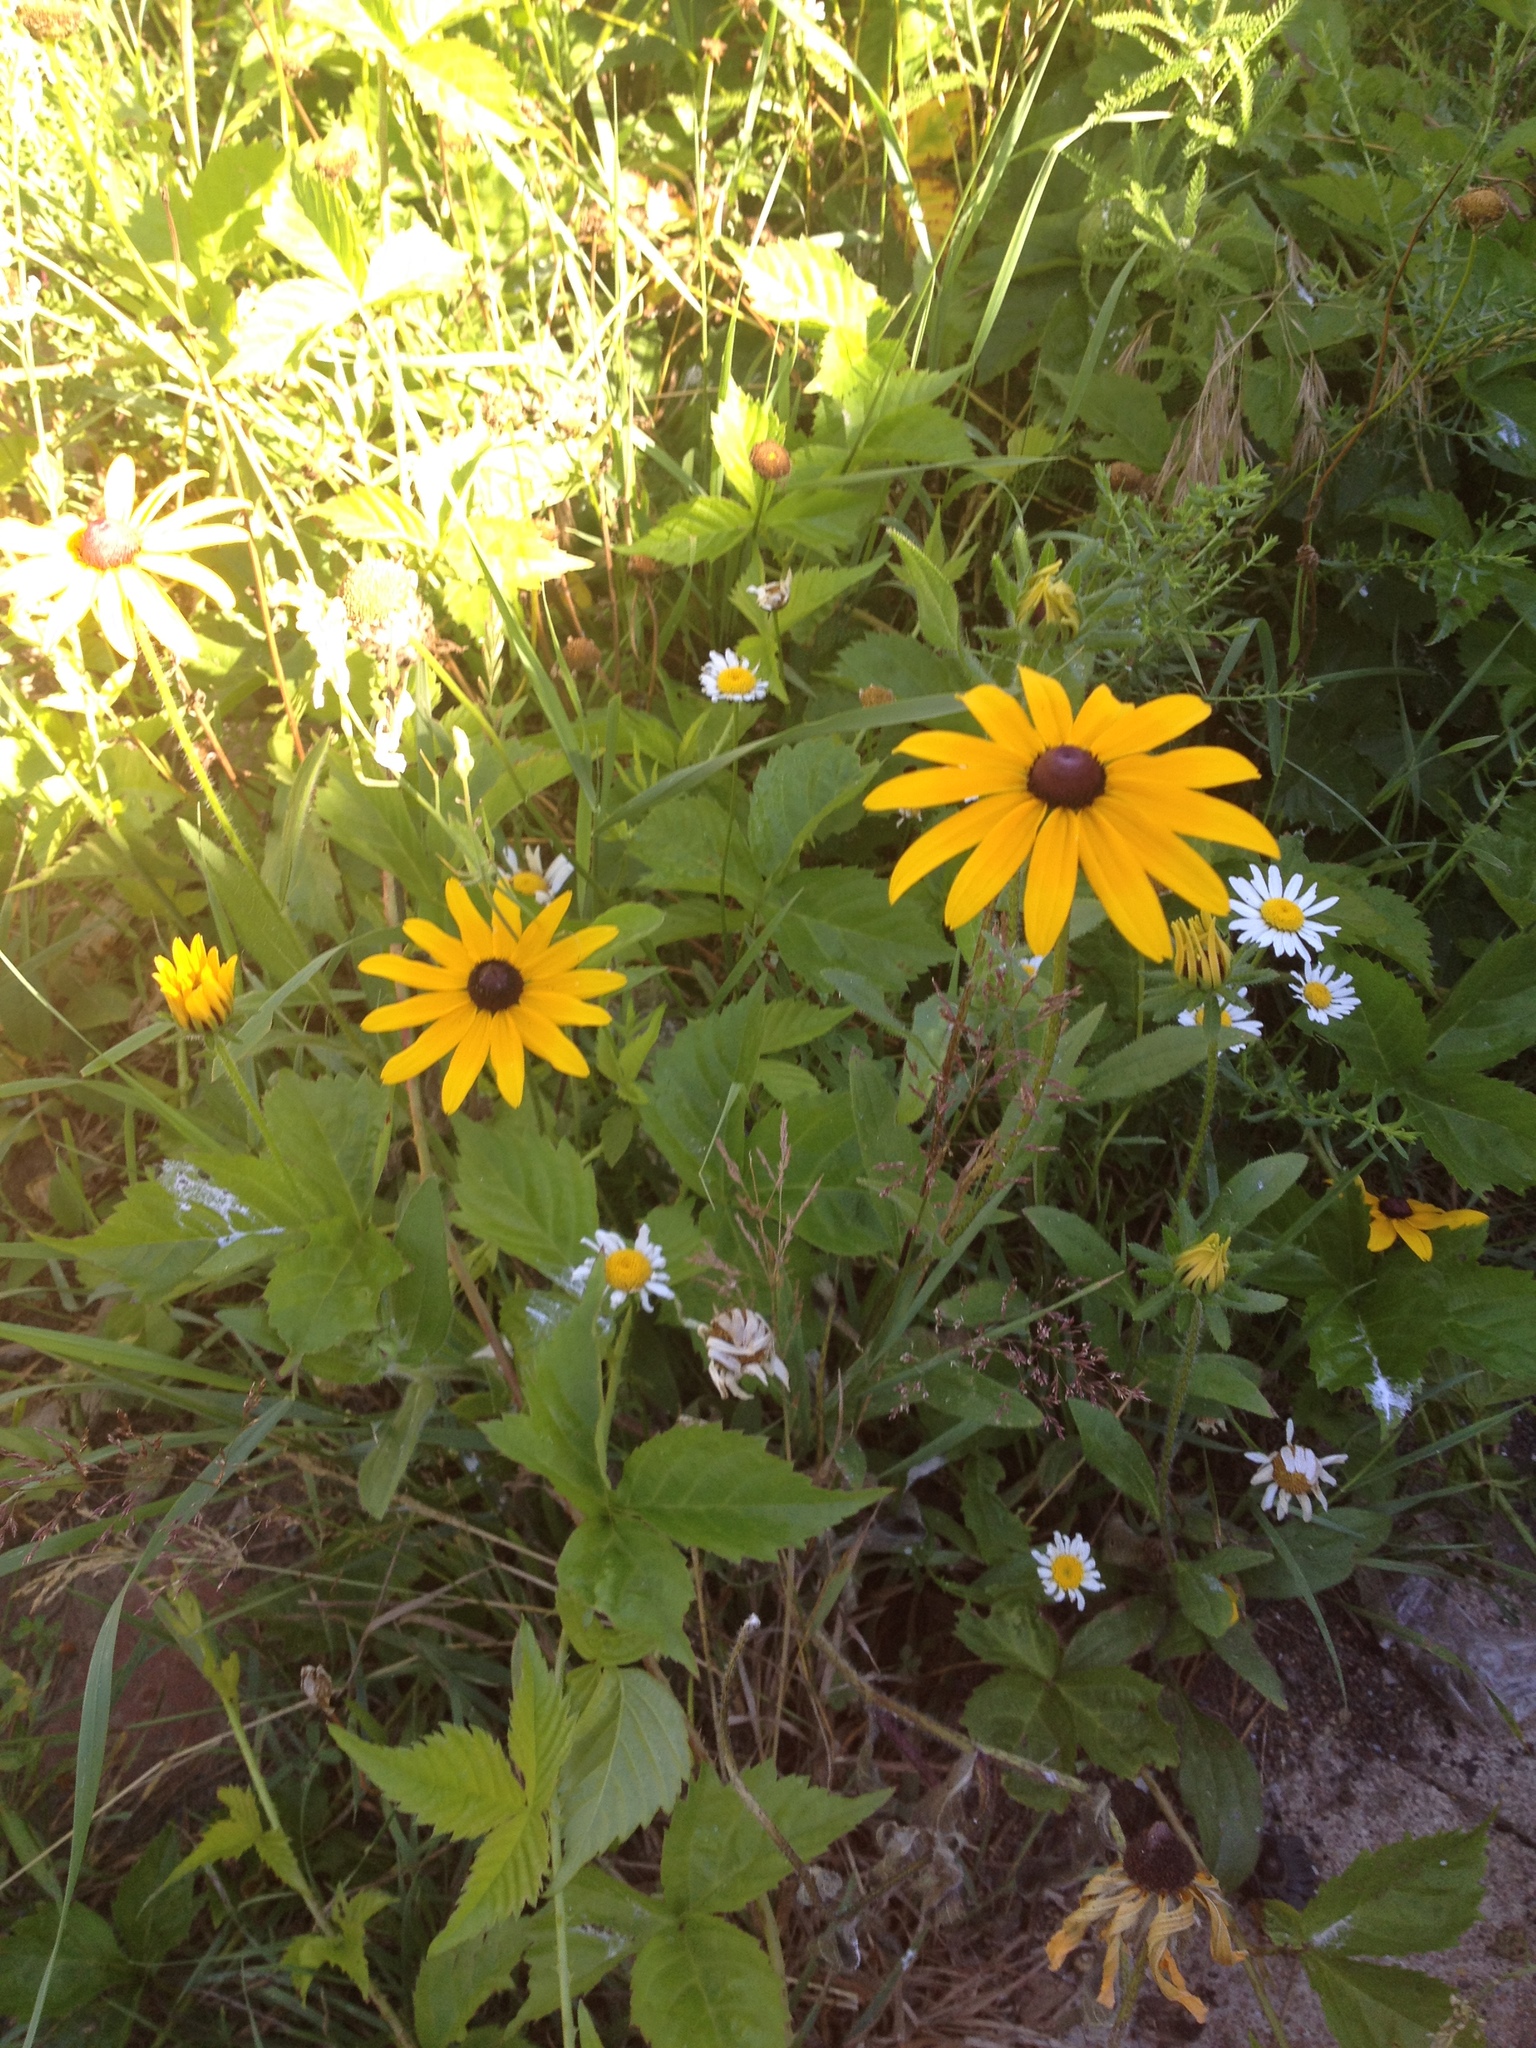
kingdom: Plantae
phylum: Tracheophyta
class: Magnoliopsida
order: Asterales
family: Asteraceae
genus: Rudbeckia
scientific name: Rudbeckia hirta
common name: Black-eyed-susan
